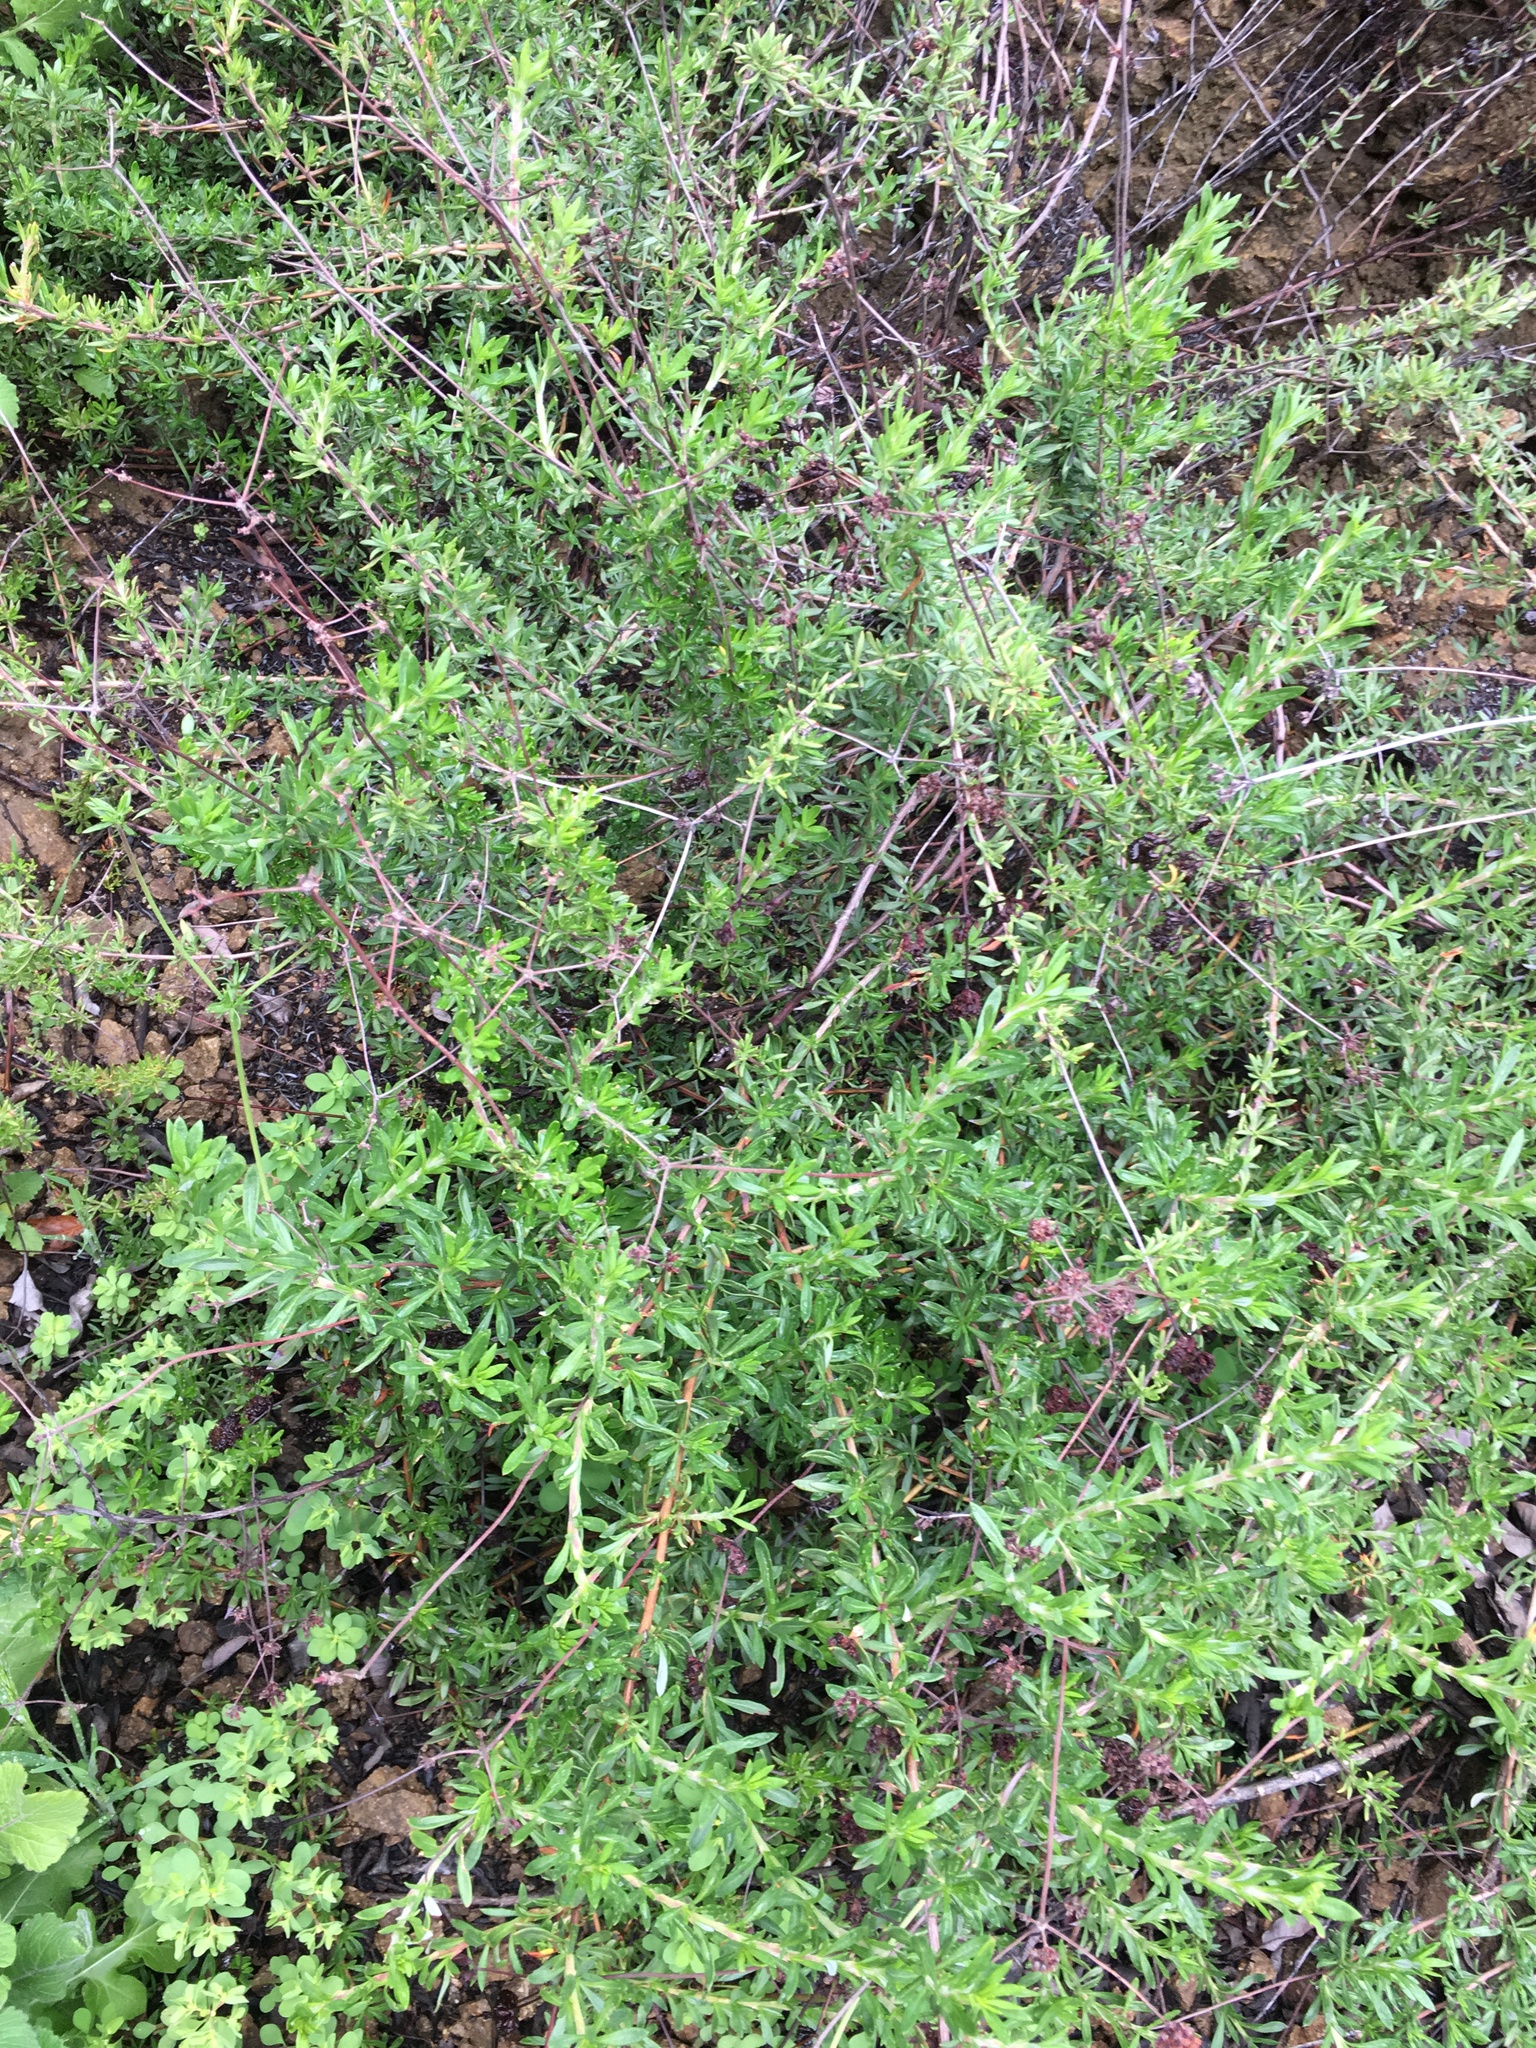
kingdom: Plantae
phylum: Tracheophyta
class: Magnoliopsida
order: Caryophyllales
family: Polygonaceae
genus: Eriogonum
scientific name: Eriogonum fasciculatum
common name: California wild buckwheat
